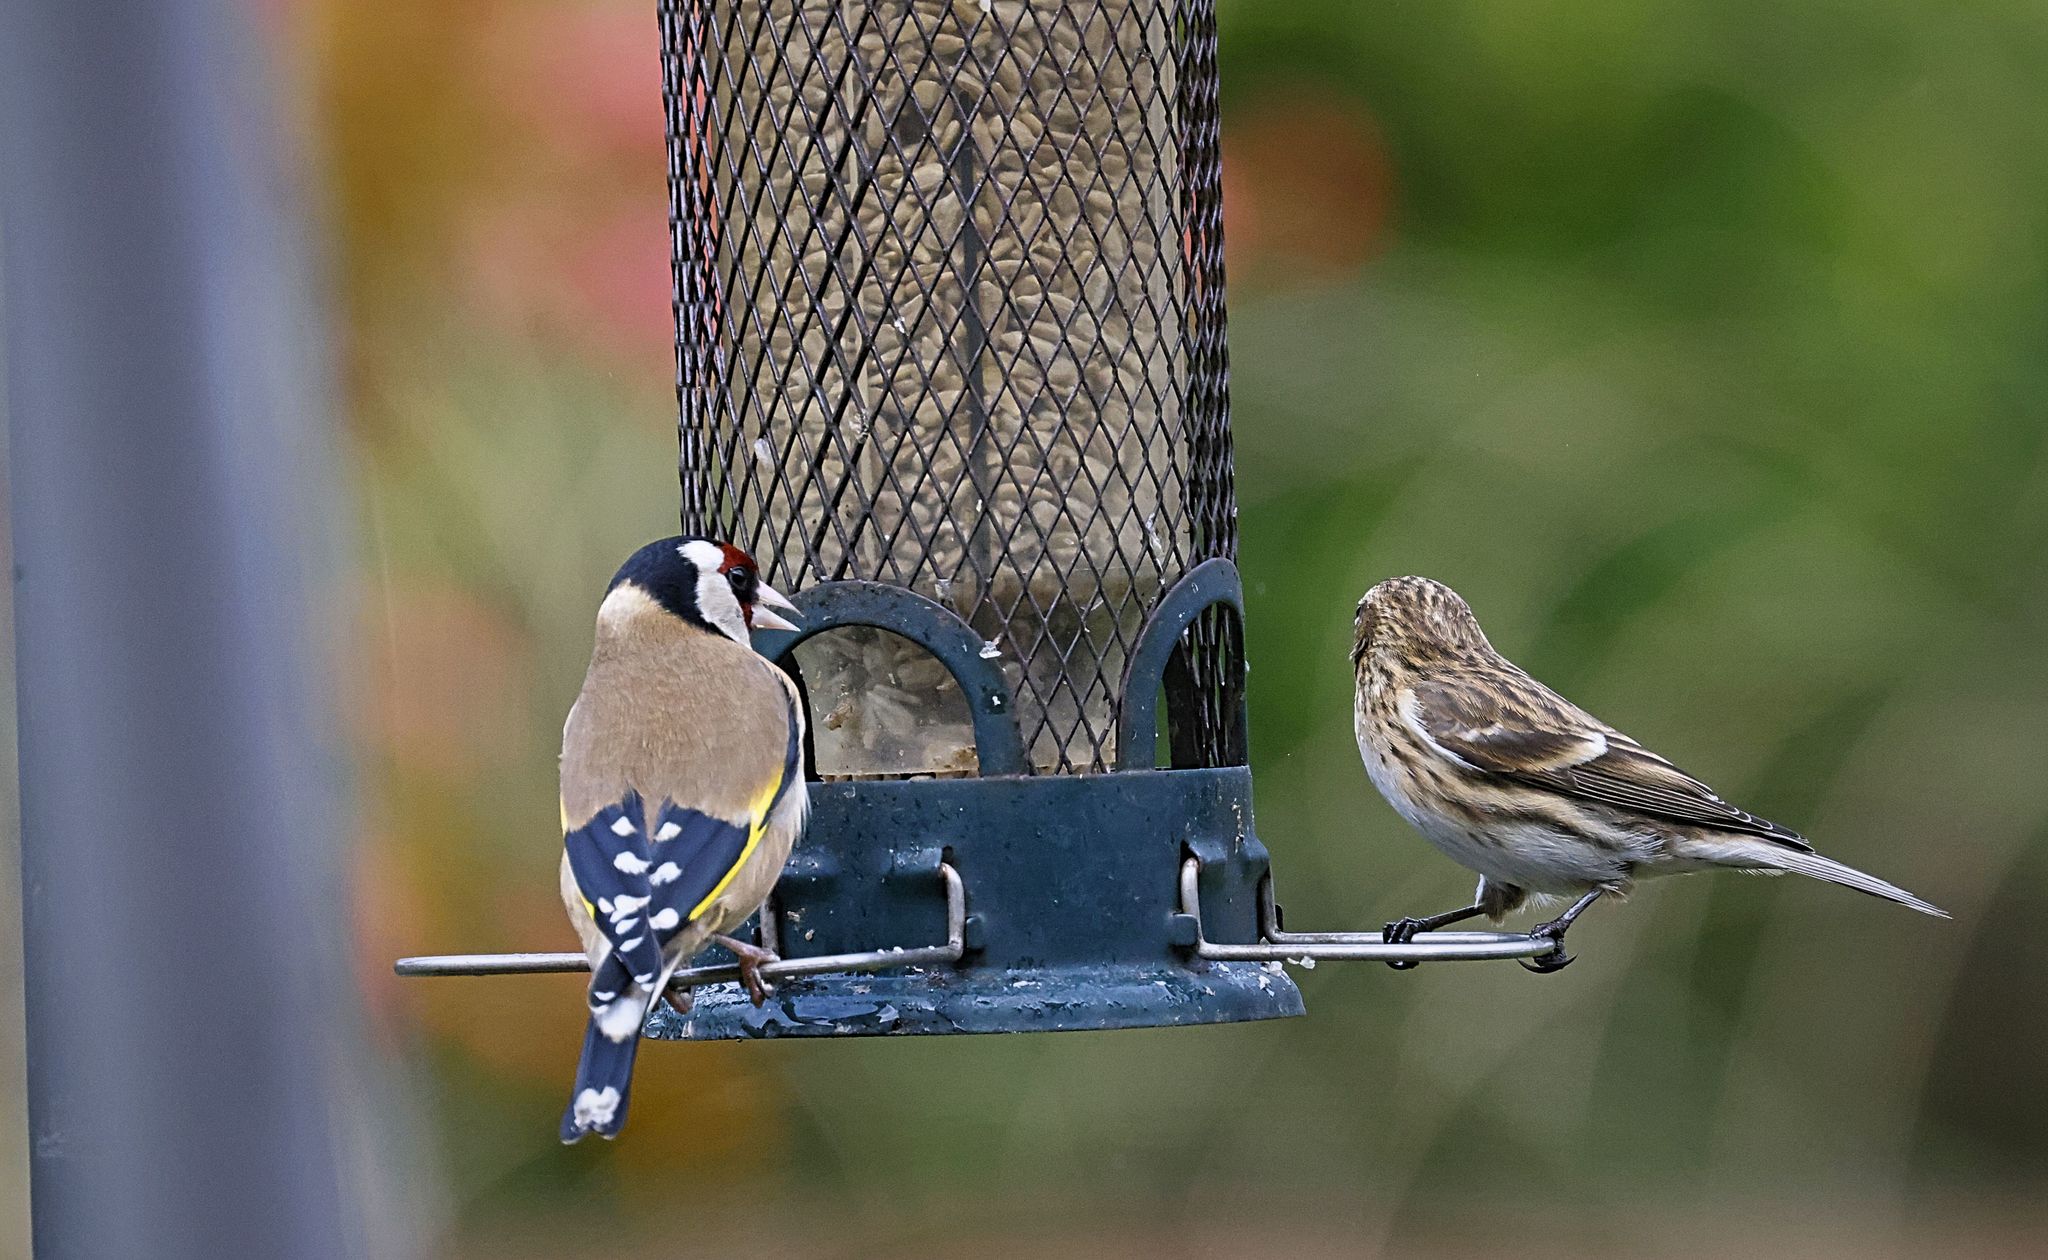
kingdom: Animalia
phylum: Chordata
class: Aves
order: Passeriformes
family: Fringillidae
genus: Carduelis
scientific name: Carduelis carduelis
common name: European goldfinch
